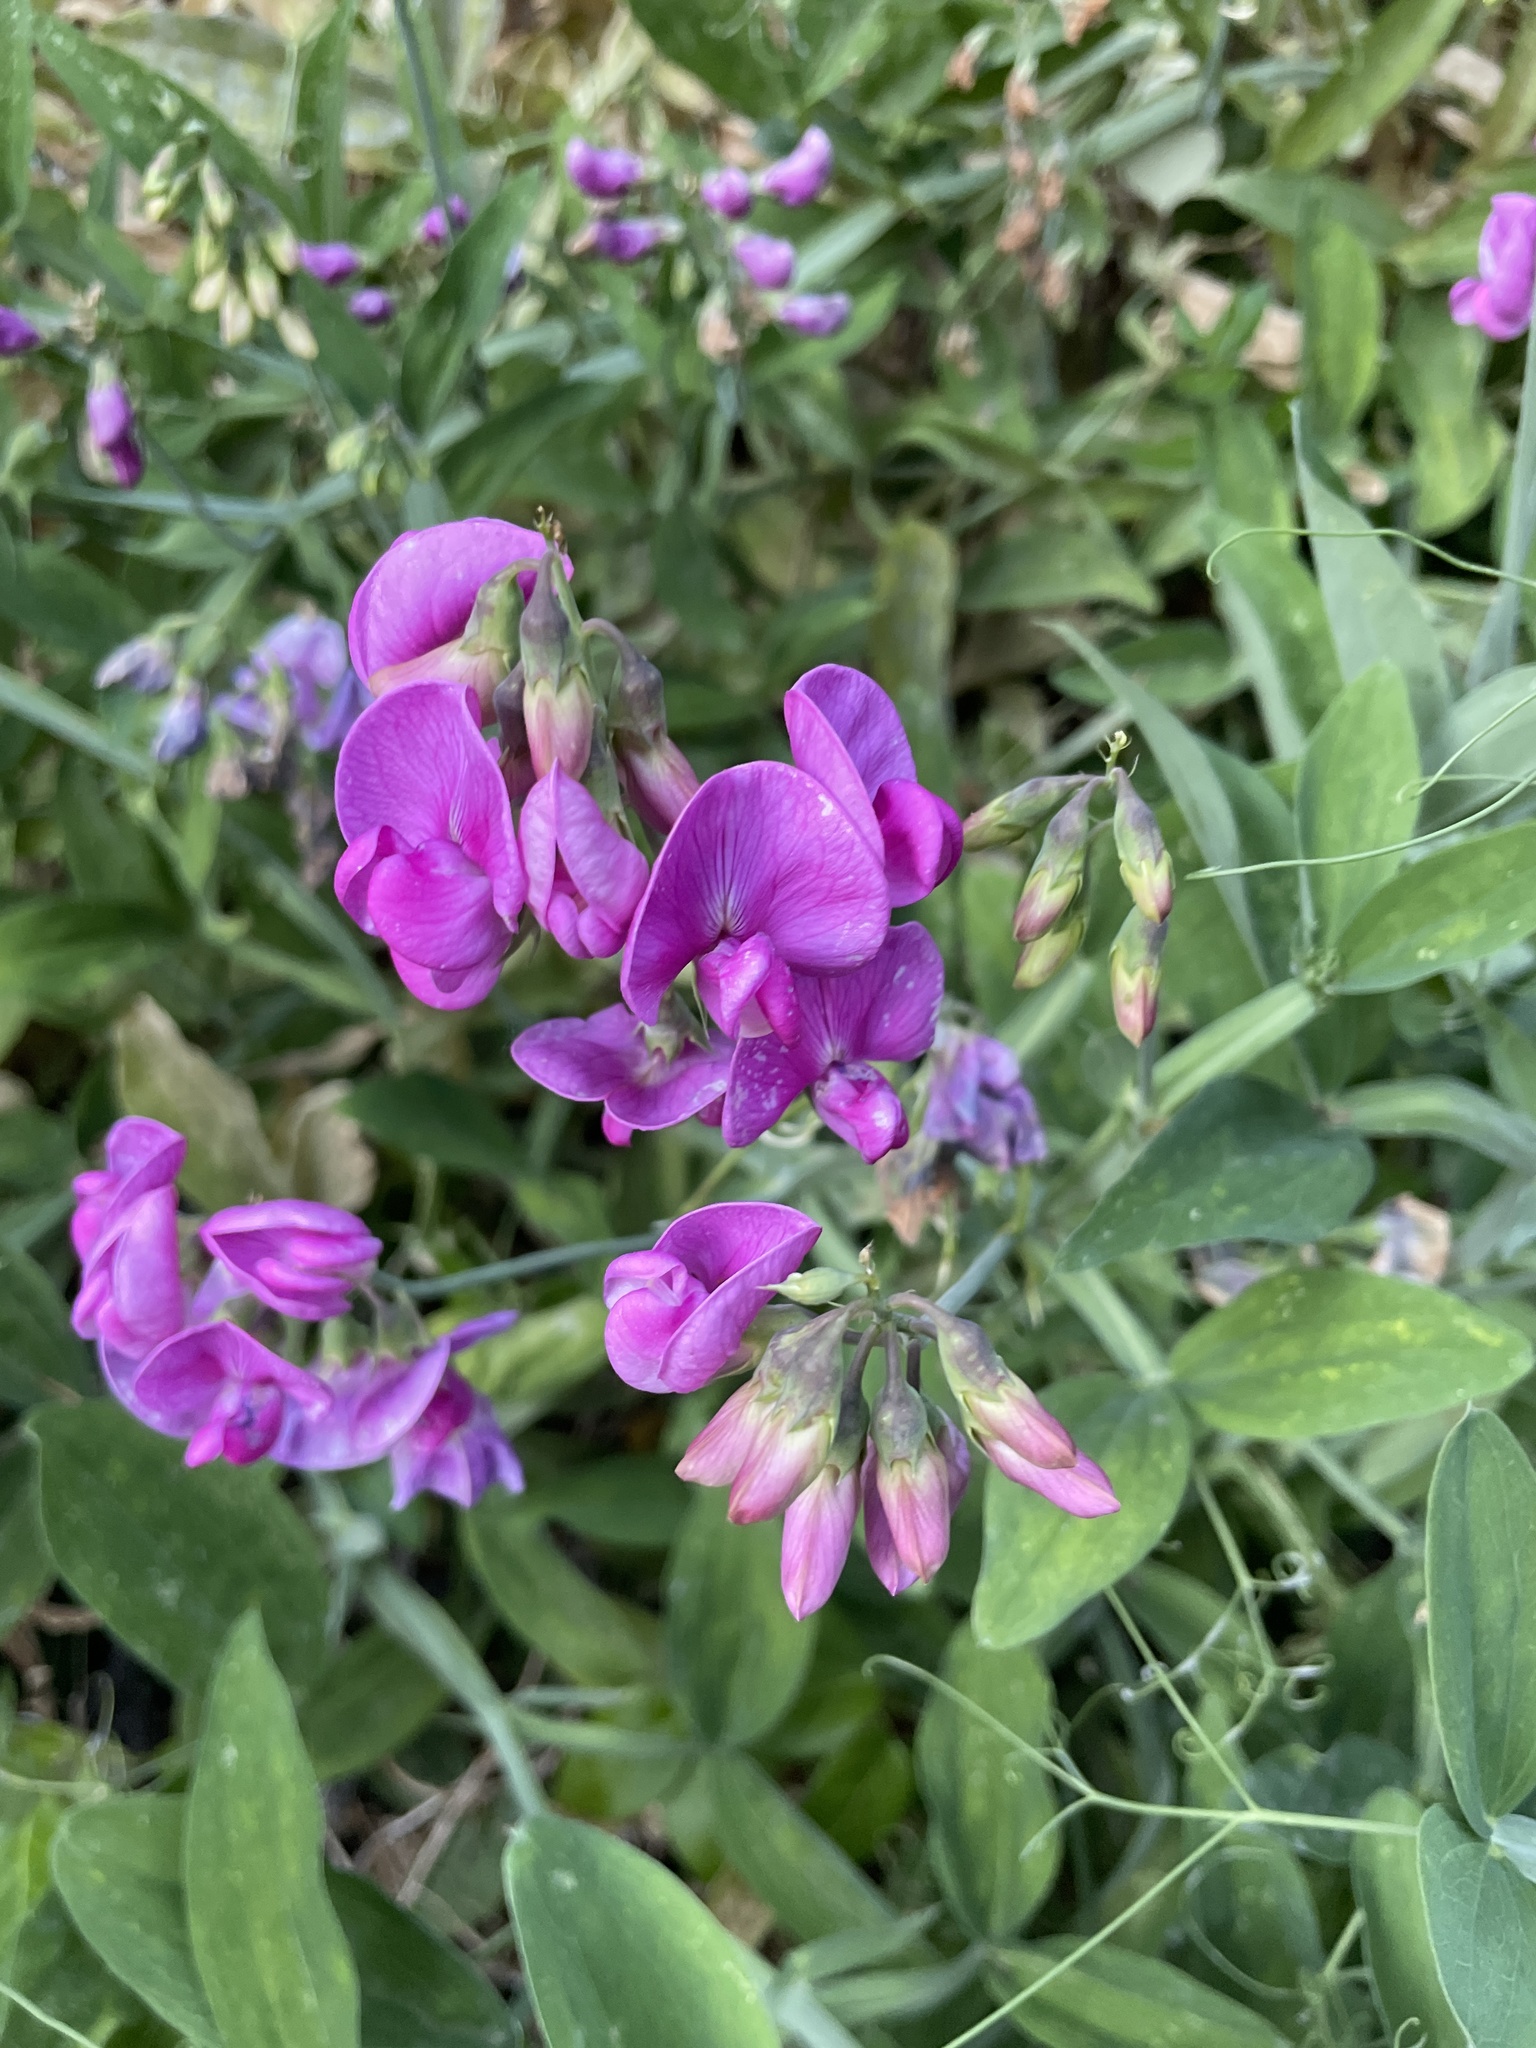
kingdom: Plantae
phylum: Tracheophyta
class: Magnoliopsida
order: Fabales
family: Fabaceae
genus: Lathyrus
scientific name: Lathyrus latifolius
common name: Perennial pea
